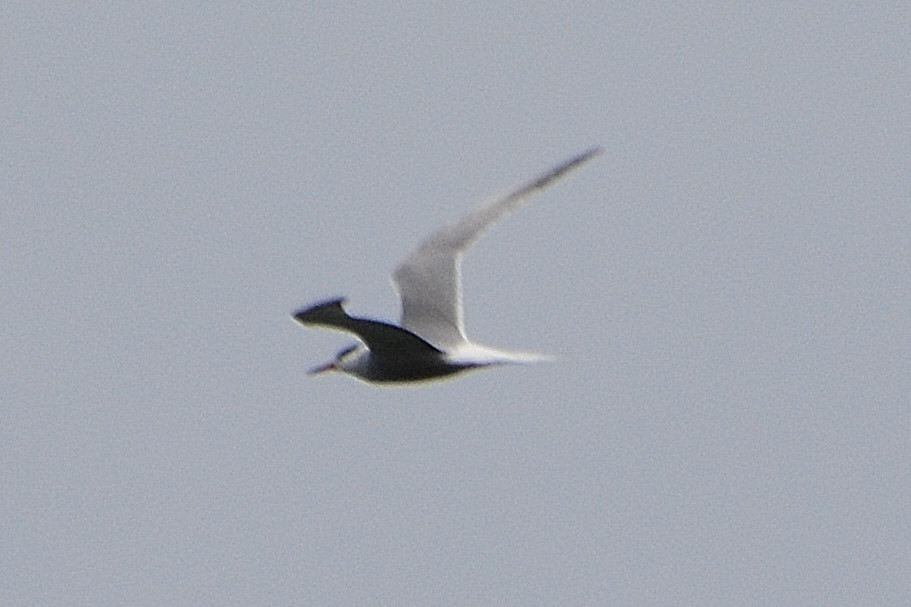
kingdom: Animalia
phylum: Chordata
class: Aves
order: Charadriiformes
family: Laridae
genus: Sterna
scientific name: Sterna hirundo
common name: Common tern
